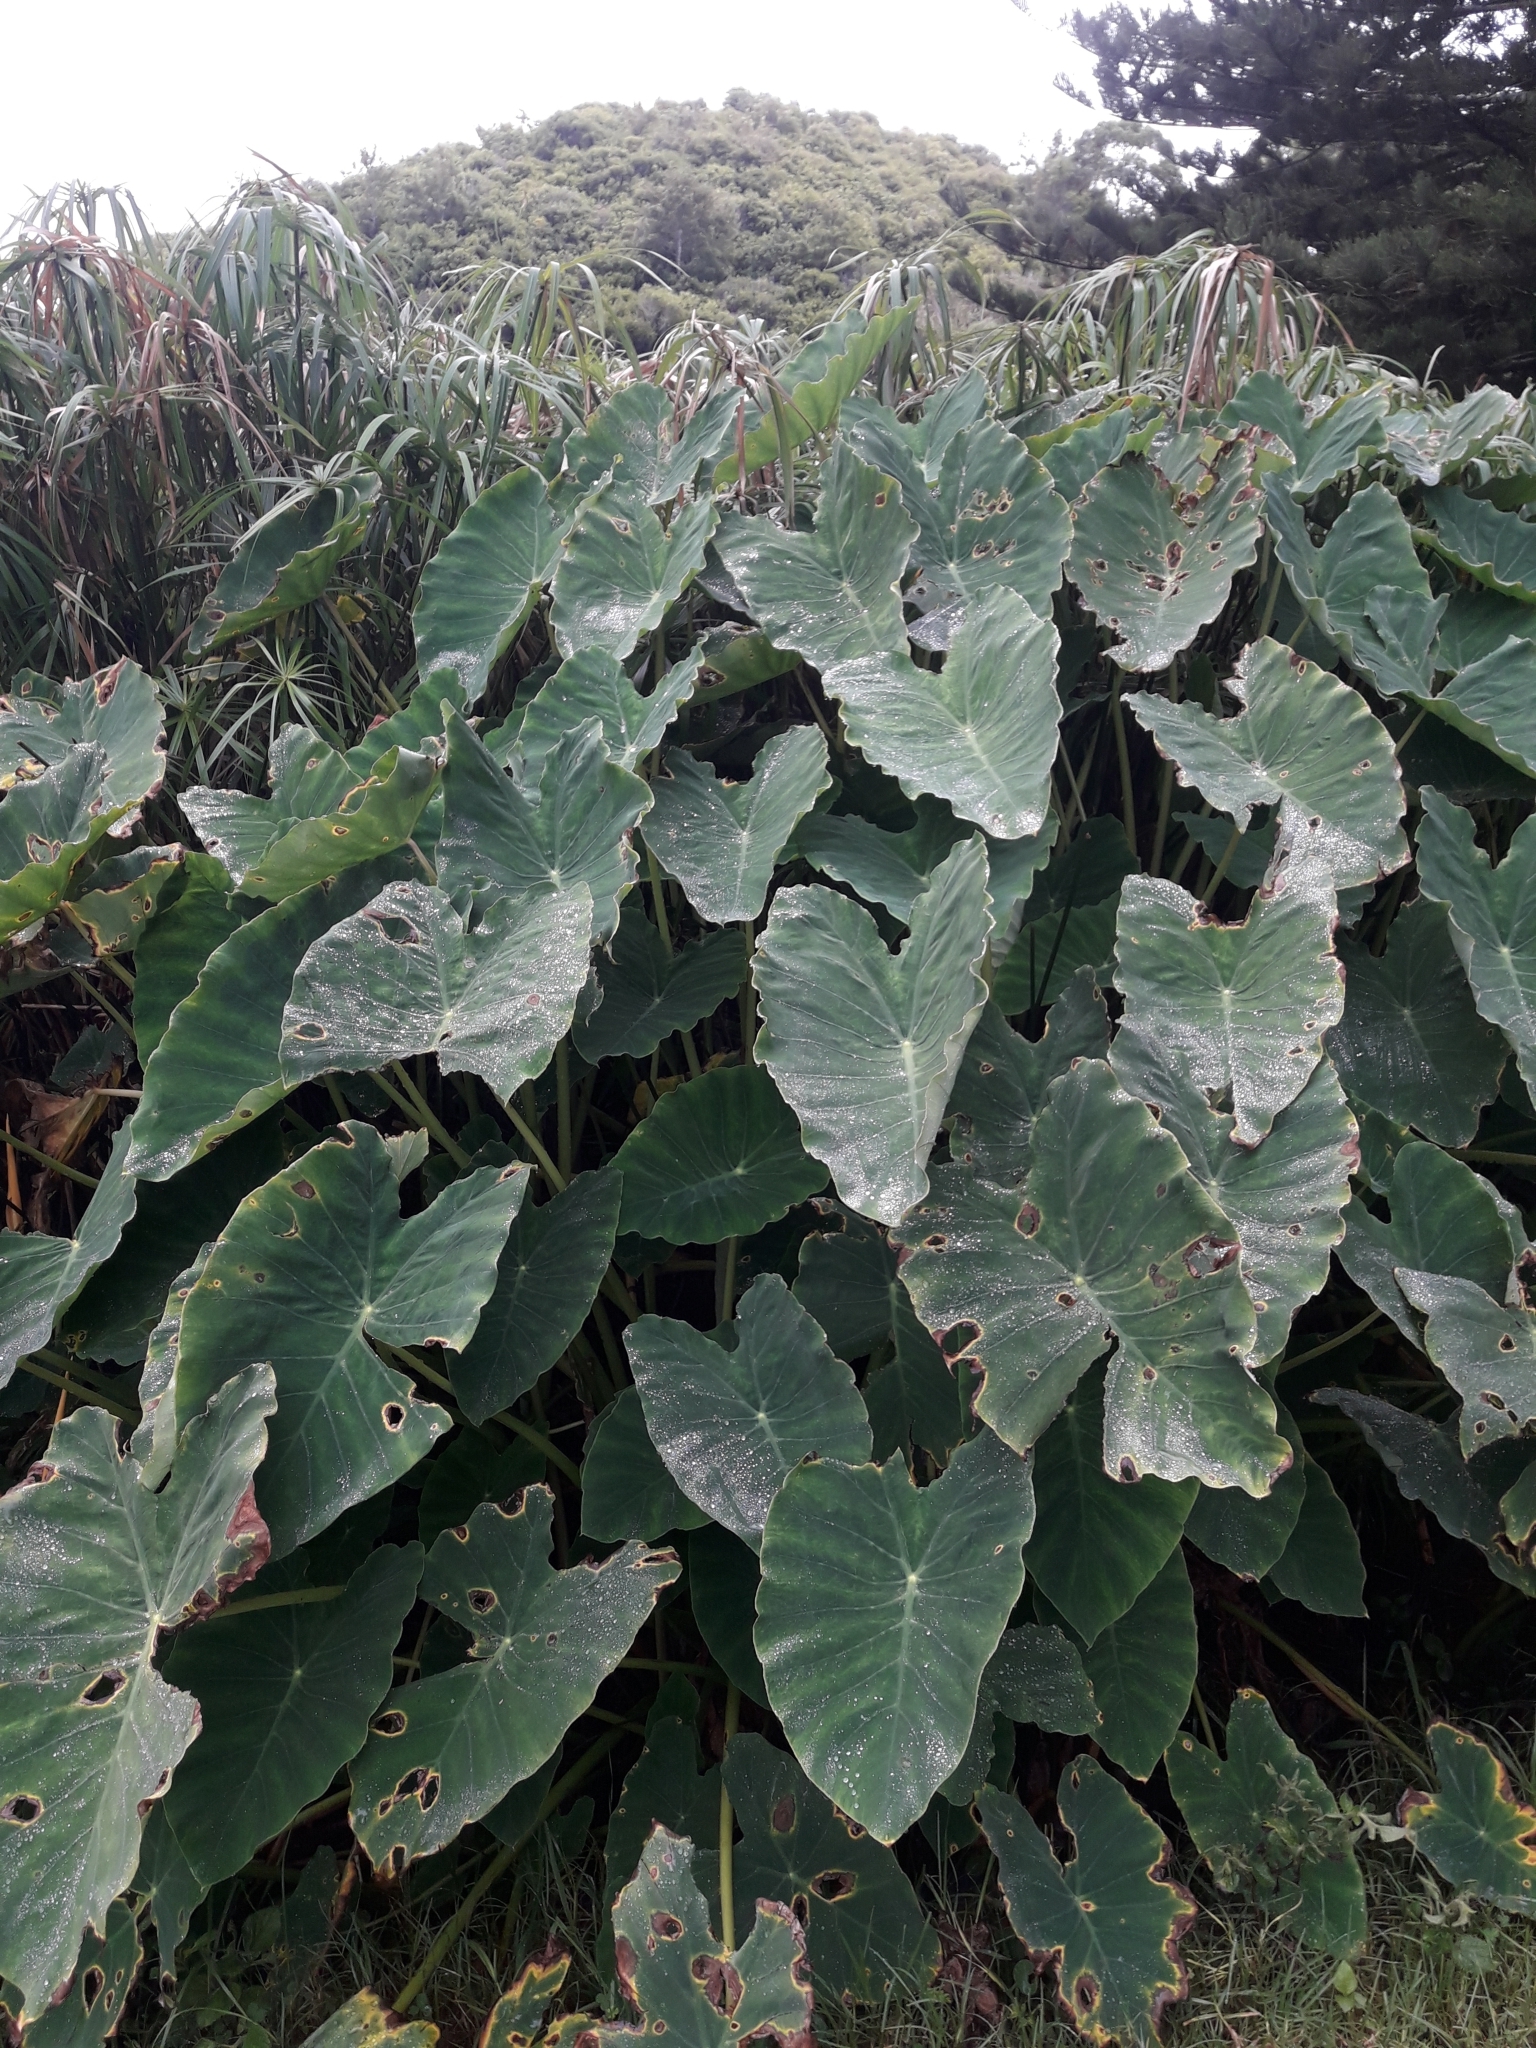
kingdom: Plantae
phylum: Tracheophyta
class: Liliopsida
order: Alismatales
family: Araceae
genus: Colocasia
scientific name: Colocasia esculenta
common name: Taro
